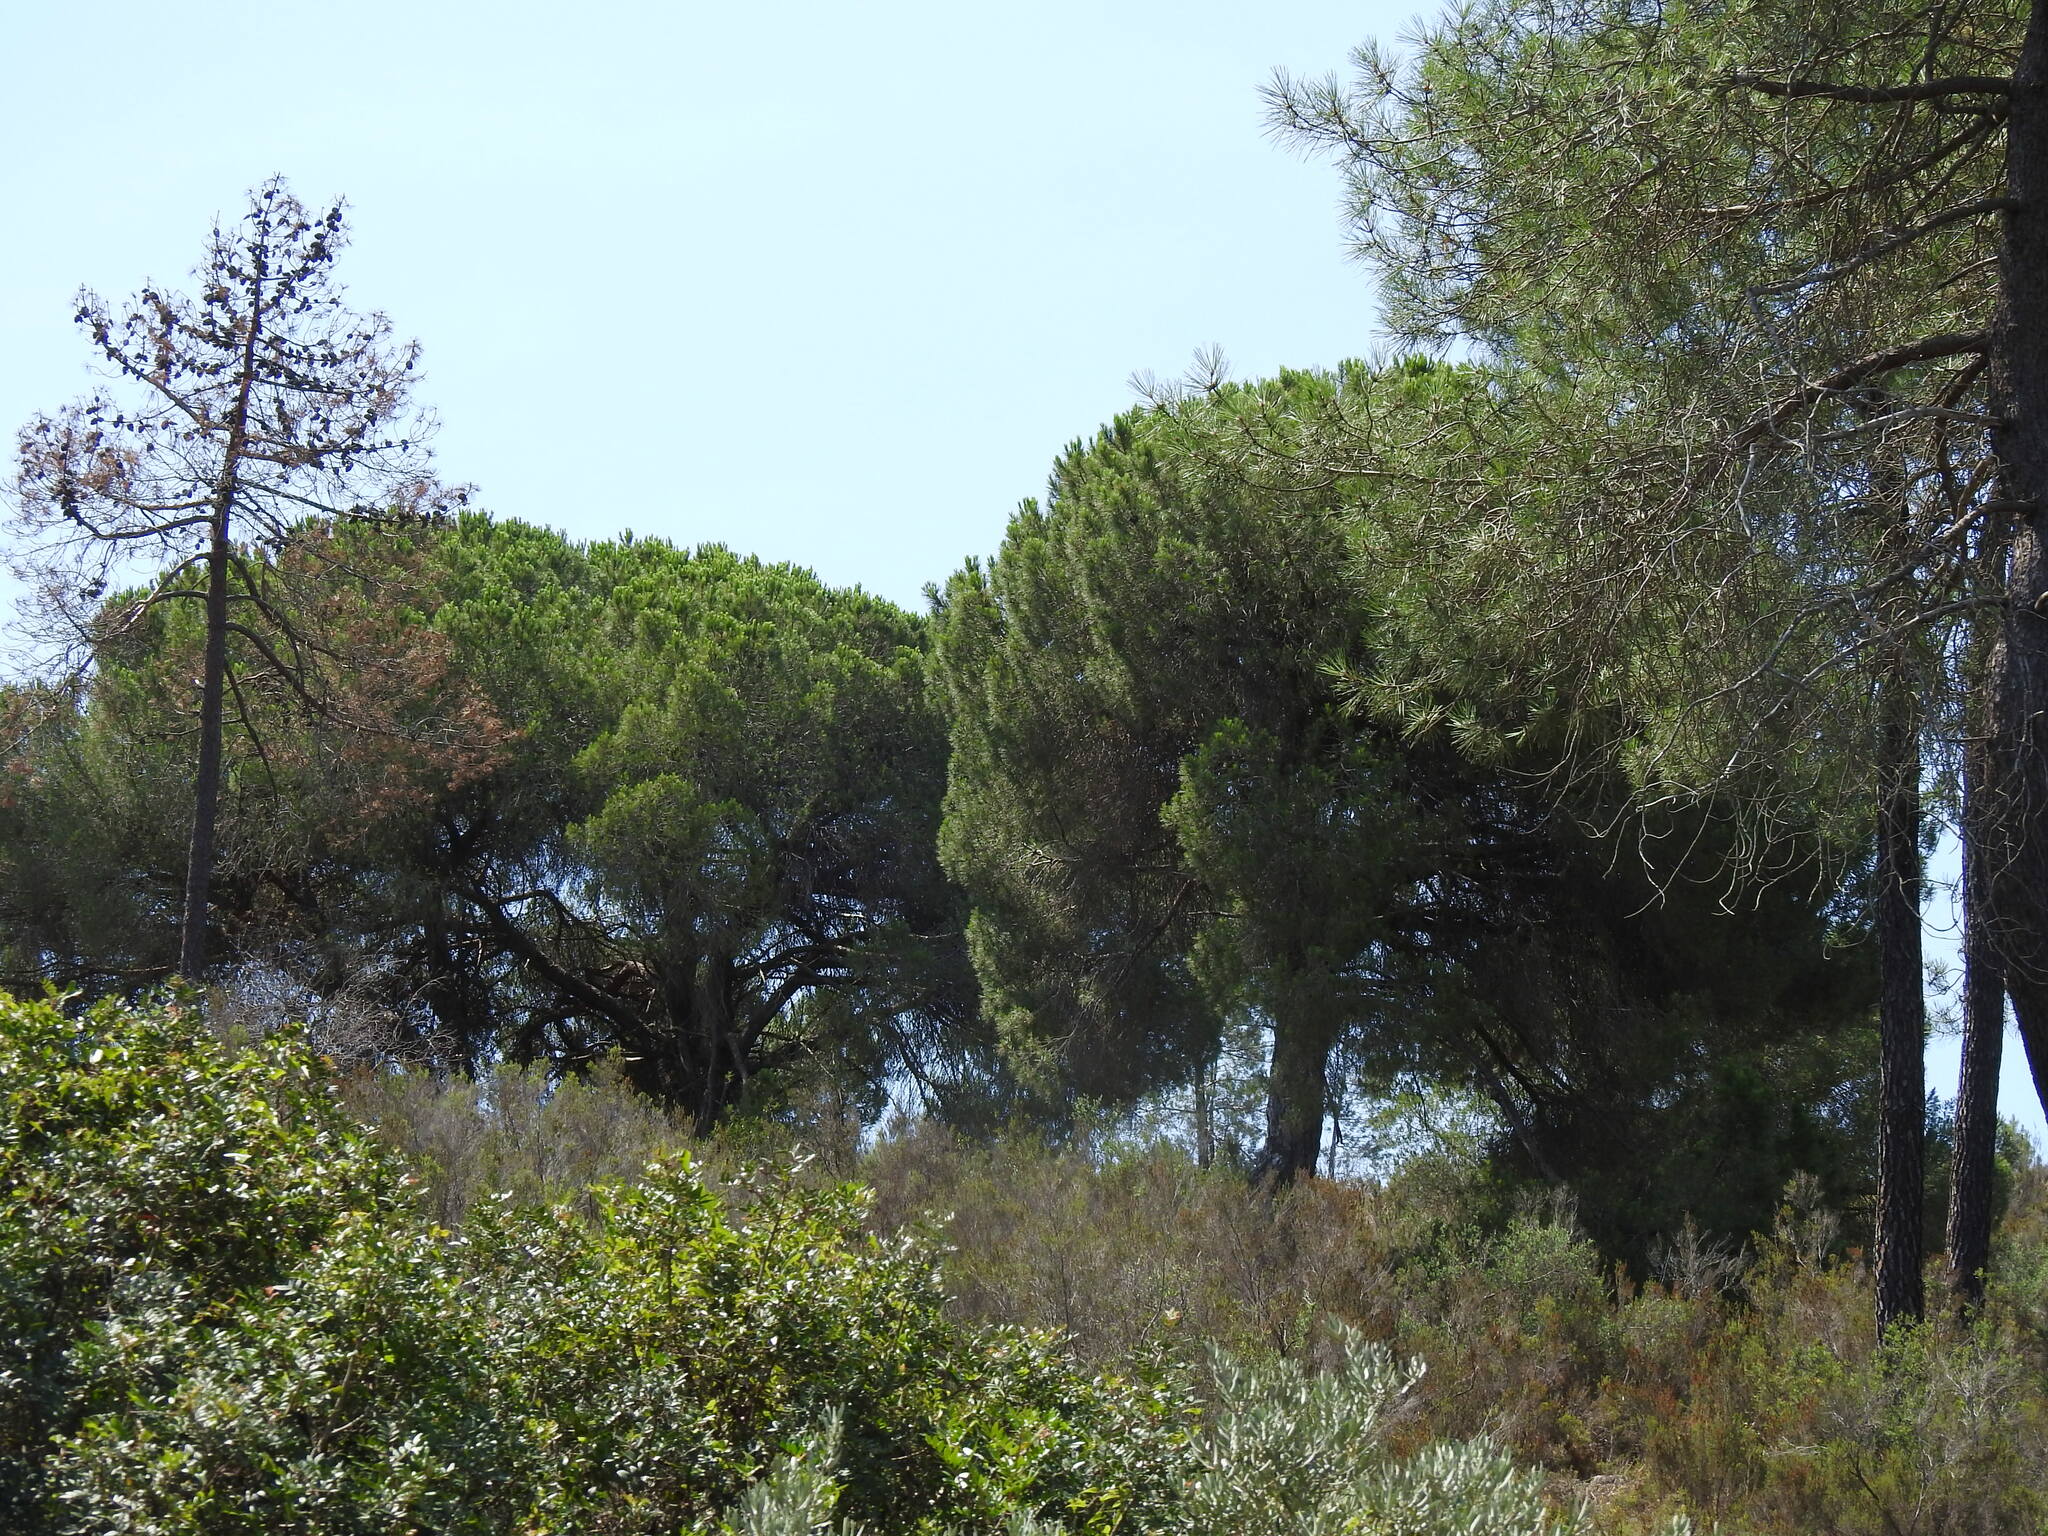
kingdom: Plantae
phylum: Tracheophyta
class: Pinopsida
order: Pinales
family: Pinaceae
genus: Pinus
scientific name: Pinus pinea
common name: Italian stone pine
